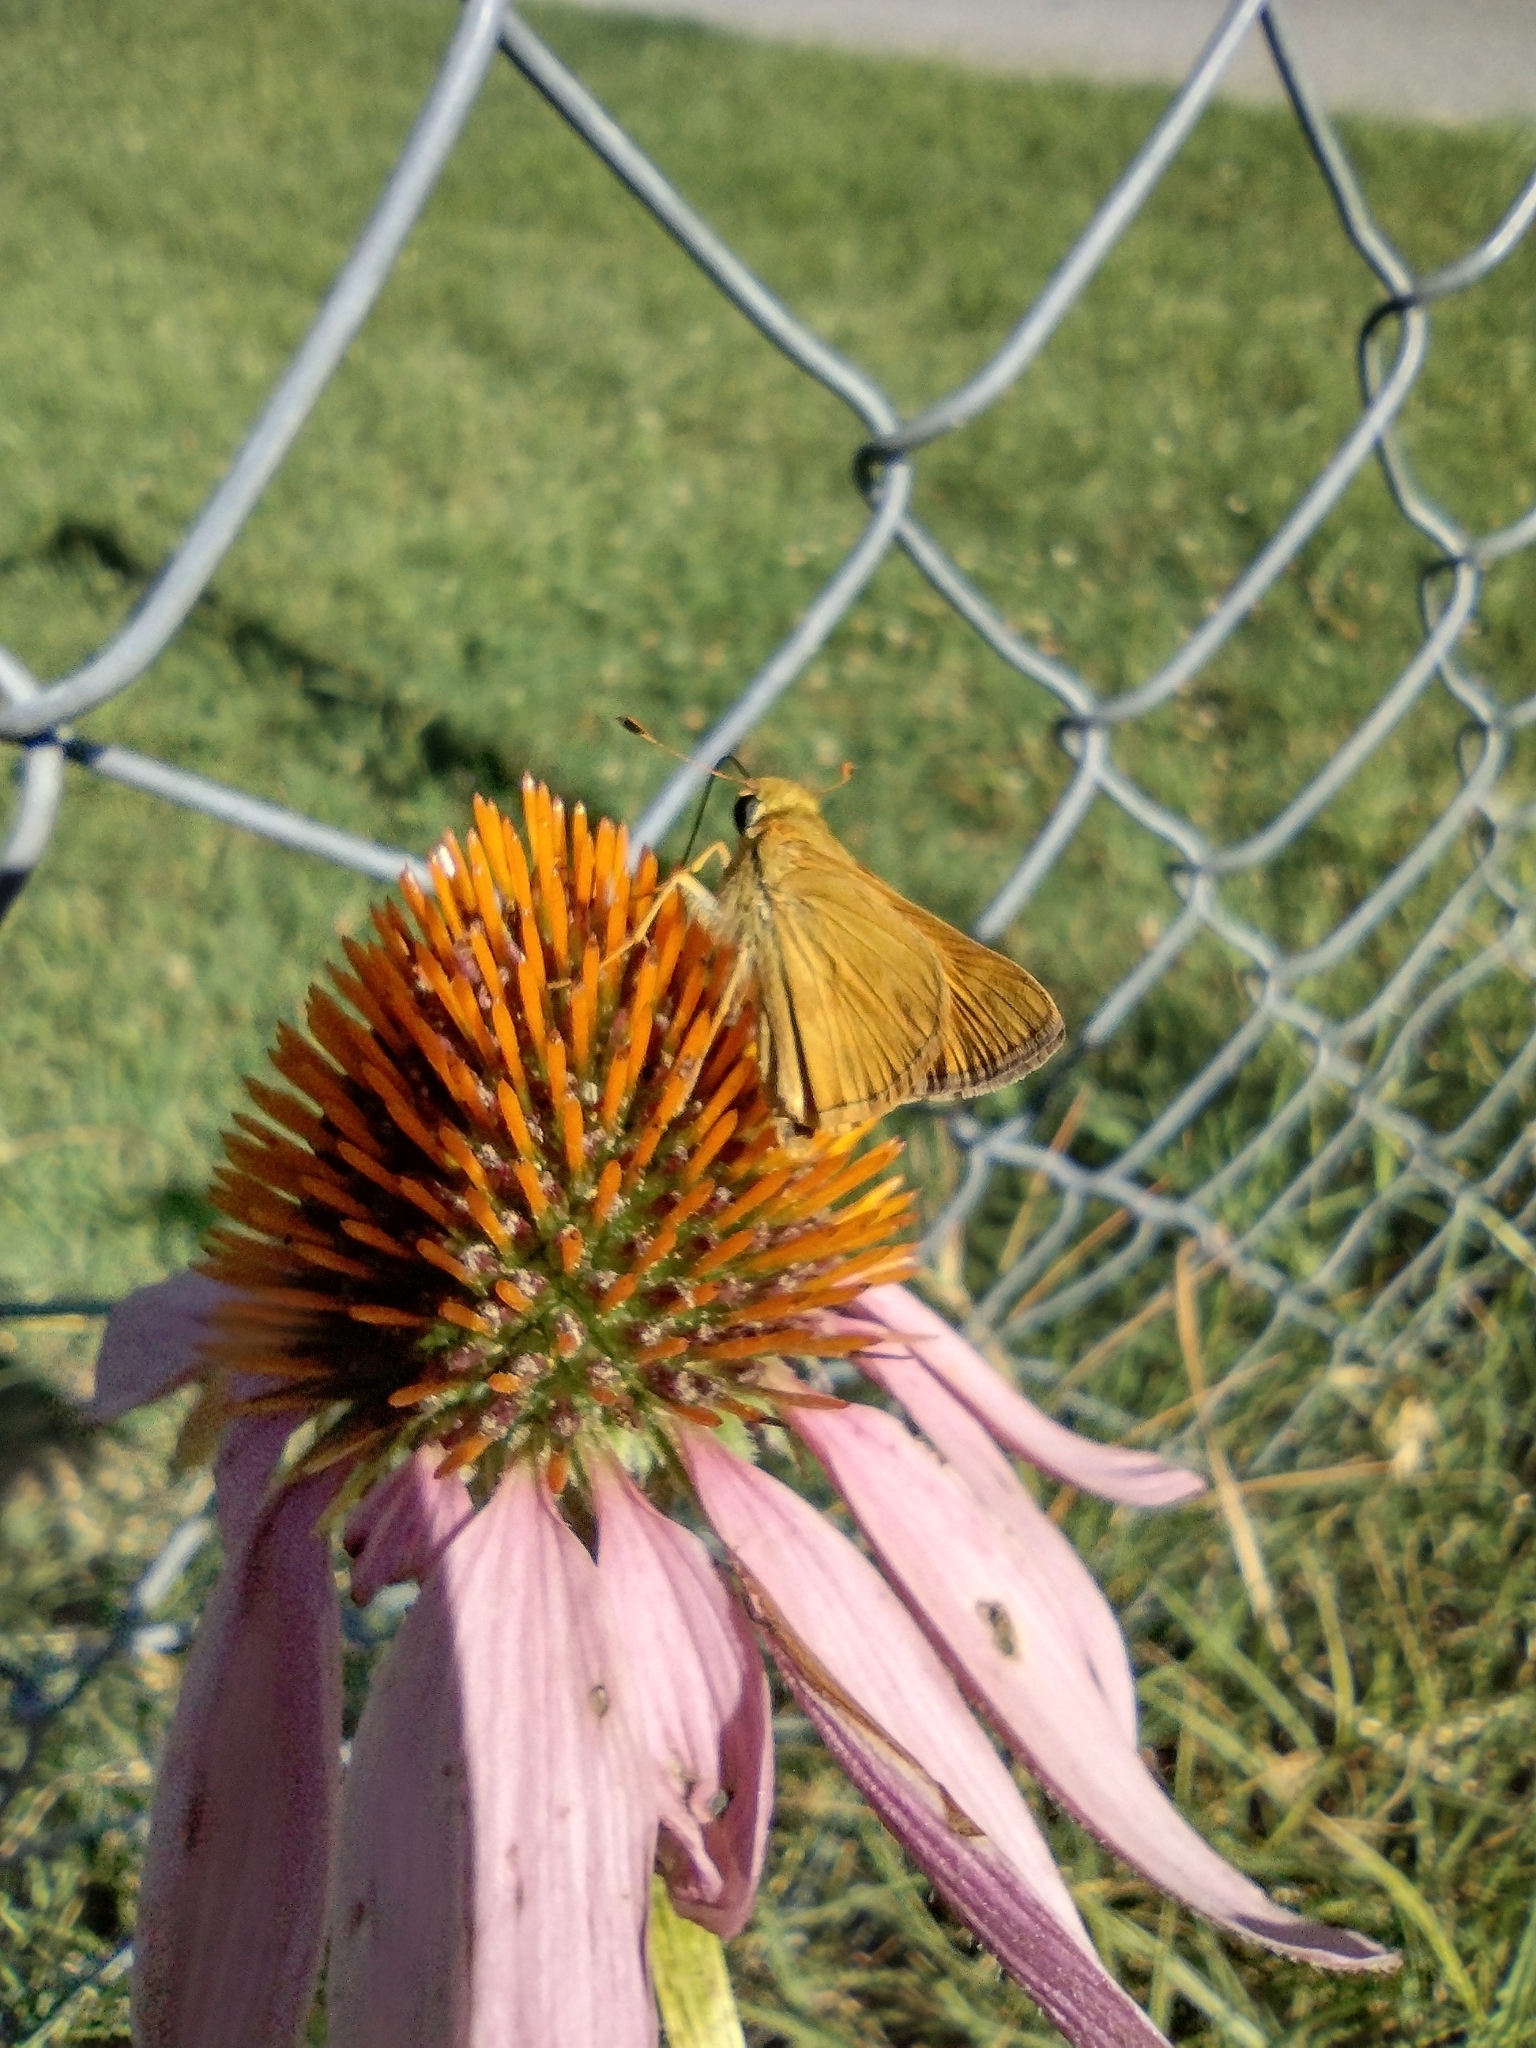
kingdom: Animalia
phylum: Arthropoda
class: Insecta
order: Lepidoptera
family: Hesperiidae
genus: Atalopedes
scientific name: Atalopedes
